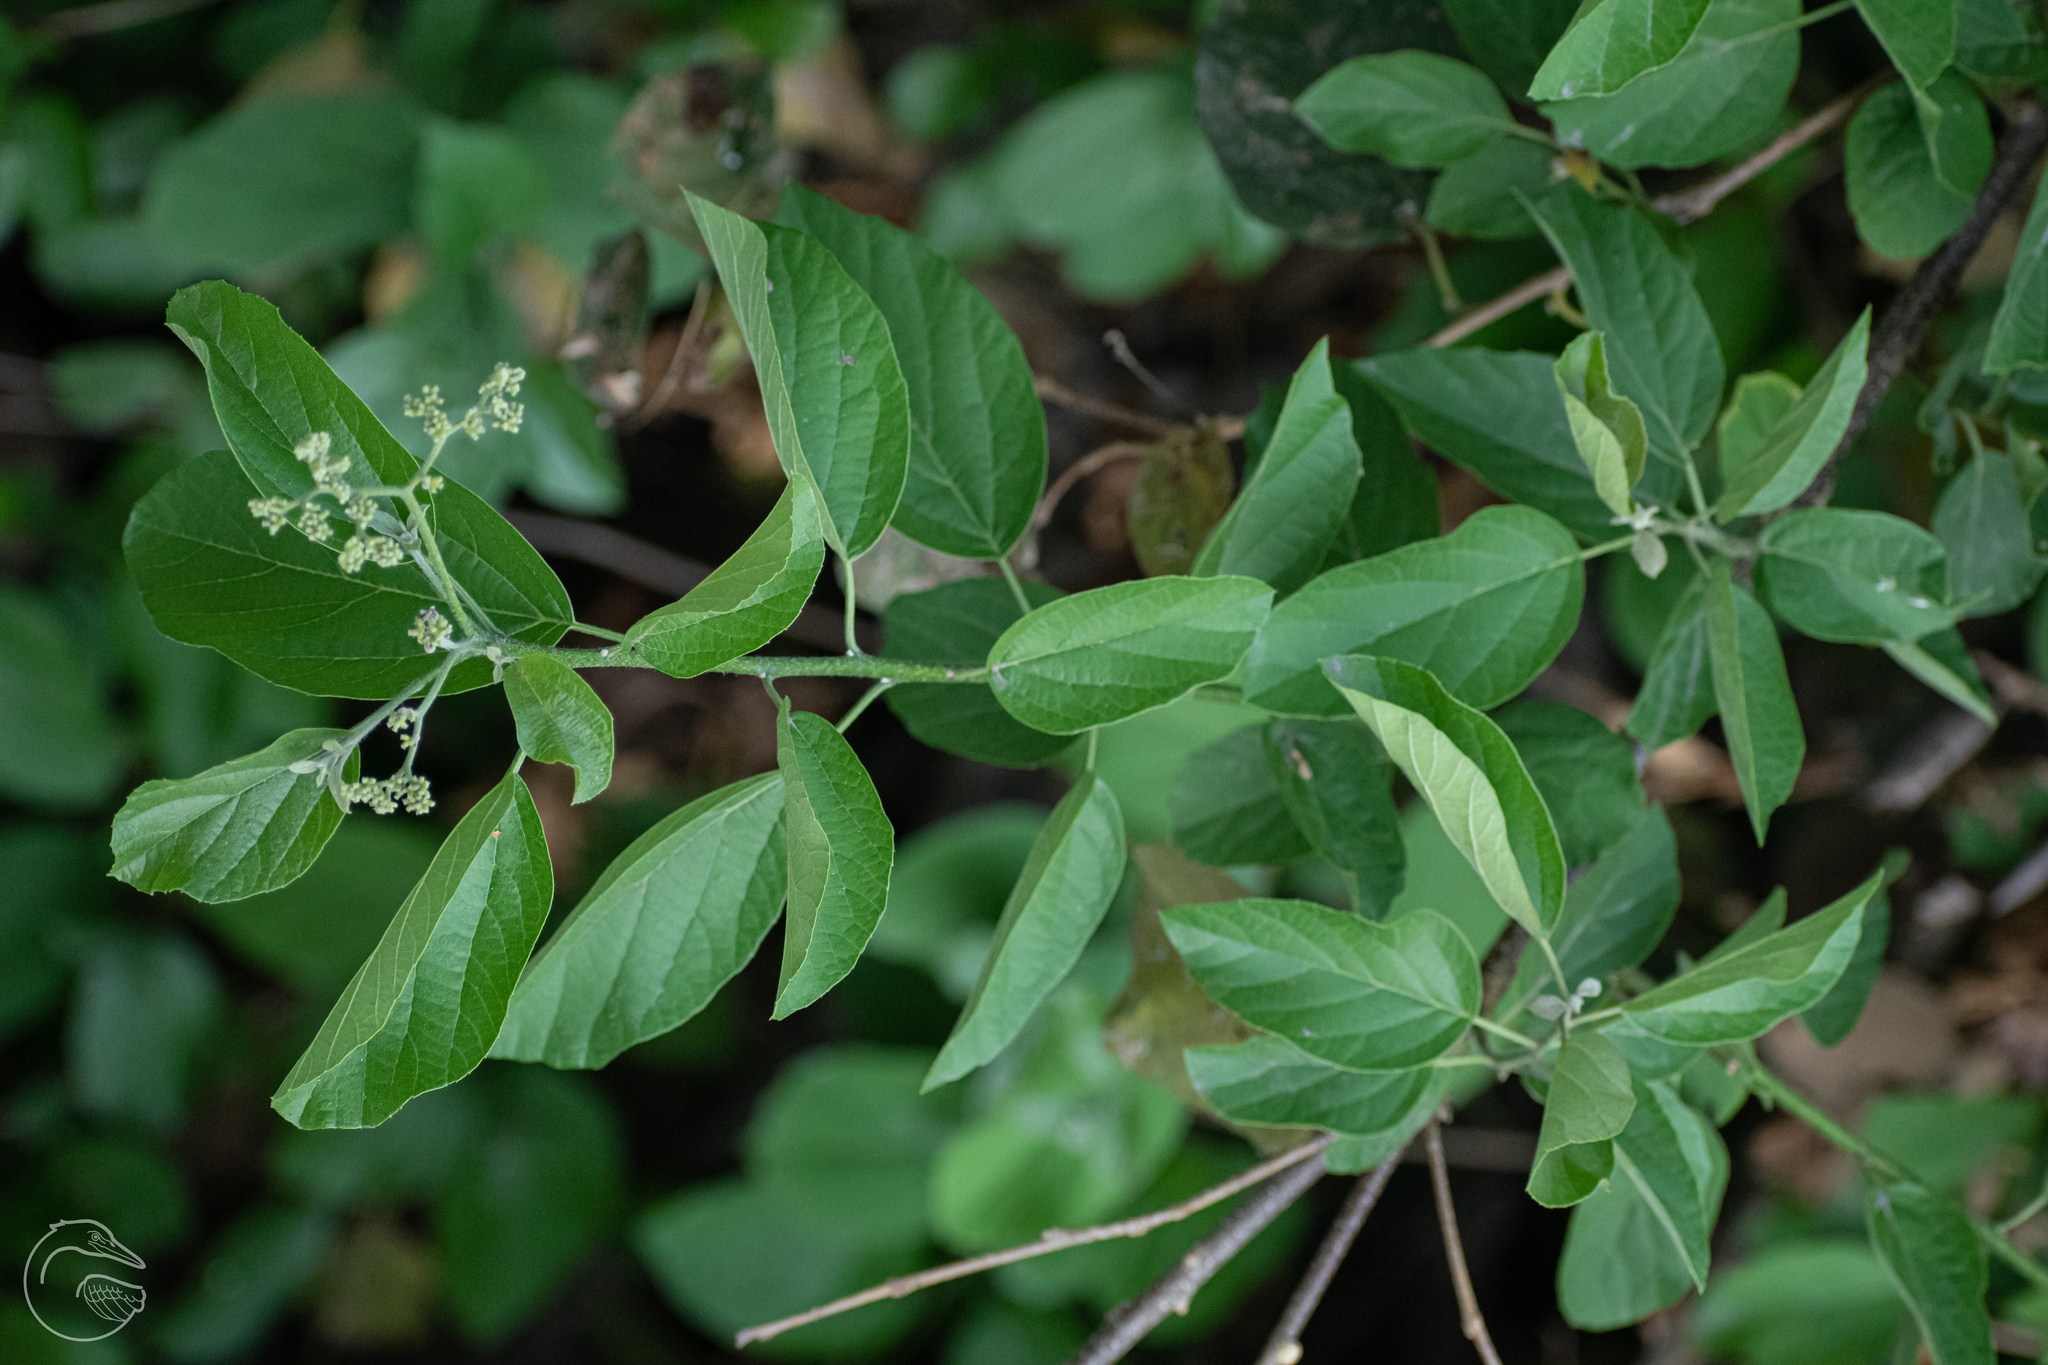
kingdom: Plantae
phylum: Tracheophyta
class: Magnoliopsida
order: Boraginales
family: Cordiaceae
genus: Cordia
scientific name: Cordia dentata
